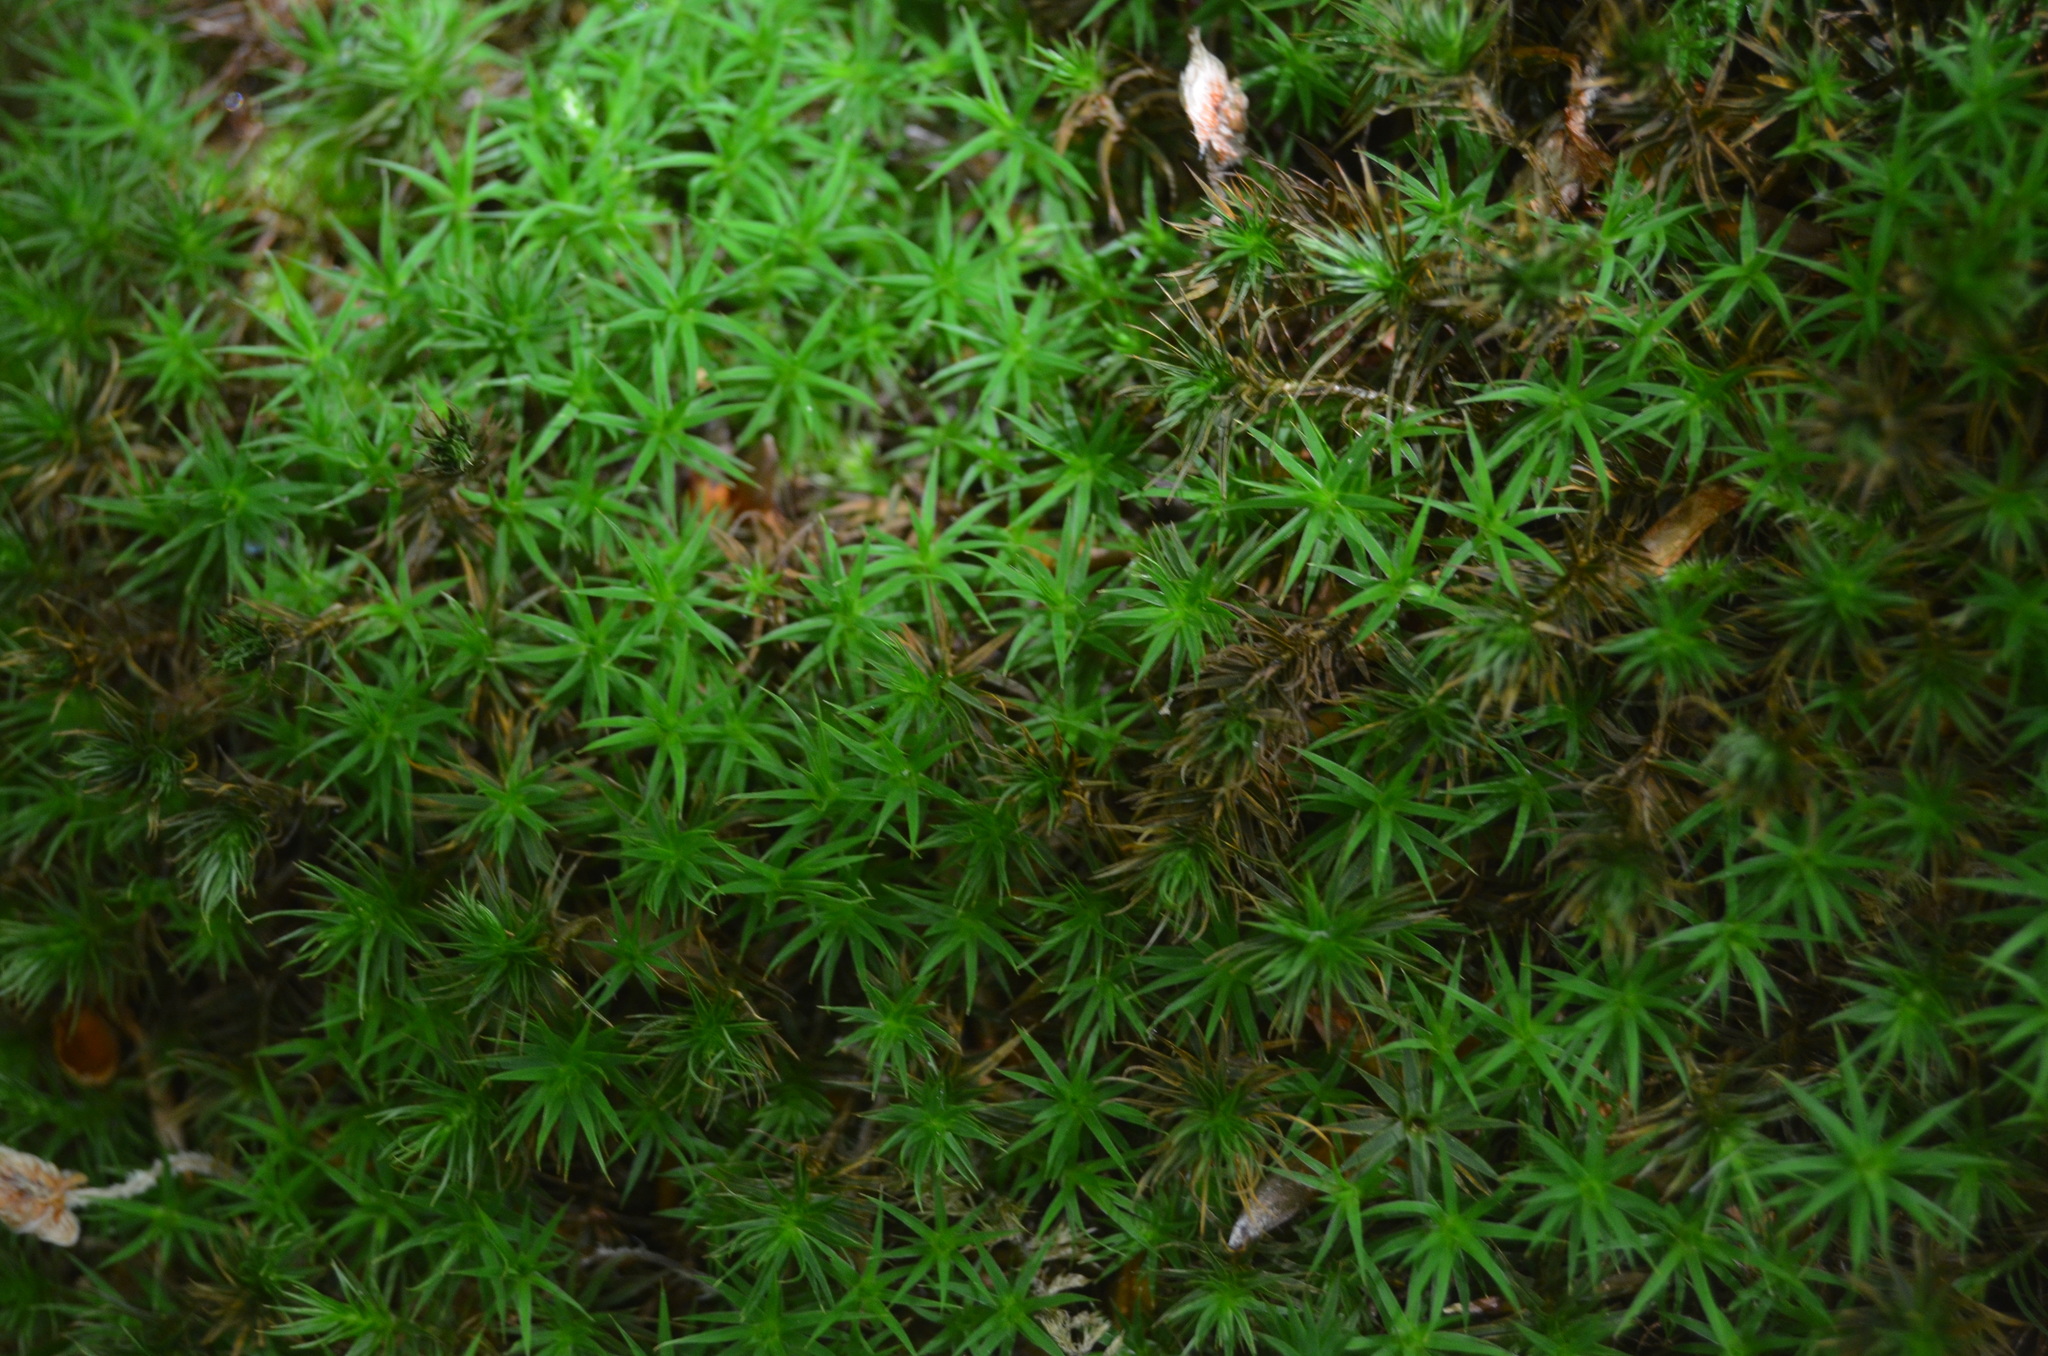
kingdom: Plantae
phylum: Bryophyta
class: Polytrichopsida
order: Polytrichales
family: Polytrichaceae
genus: Polytrichum
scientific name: Polytrichum formosum
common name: Bank haircap moss
